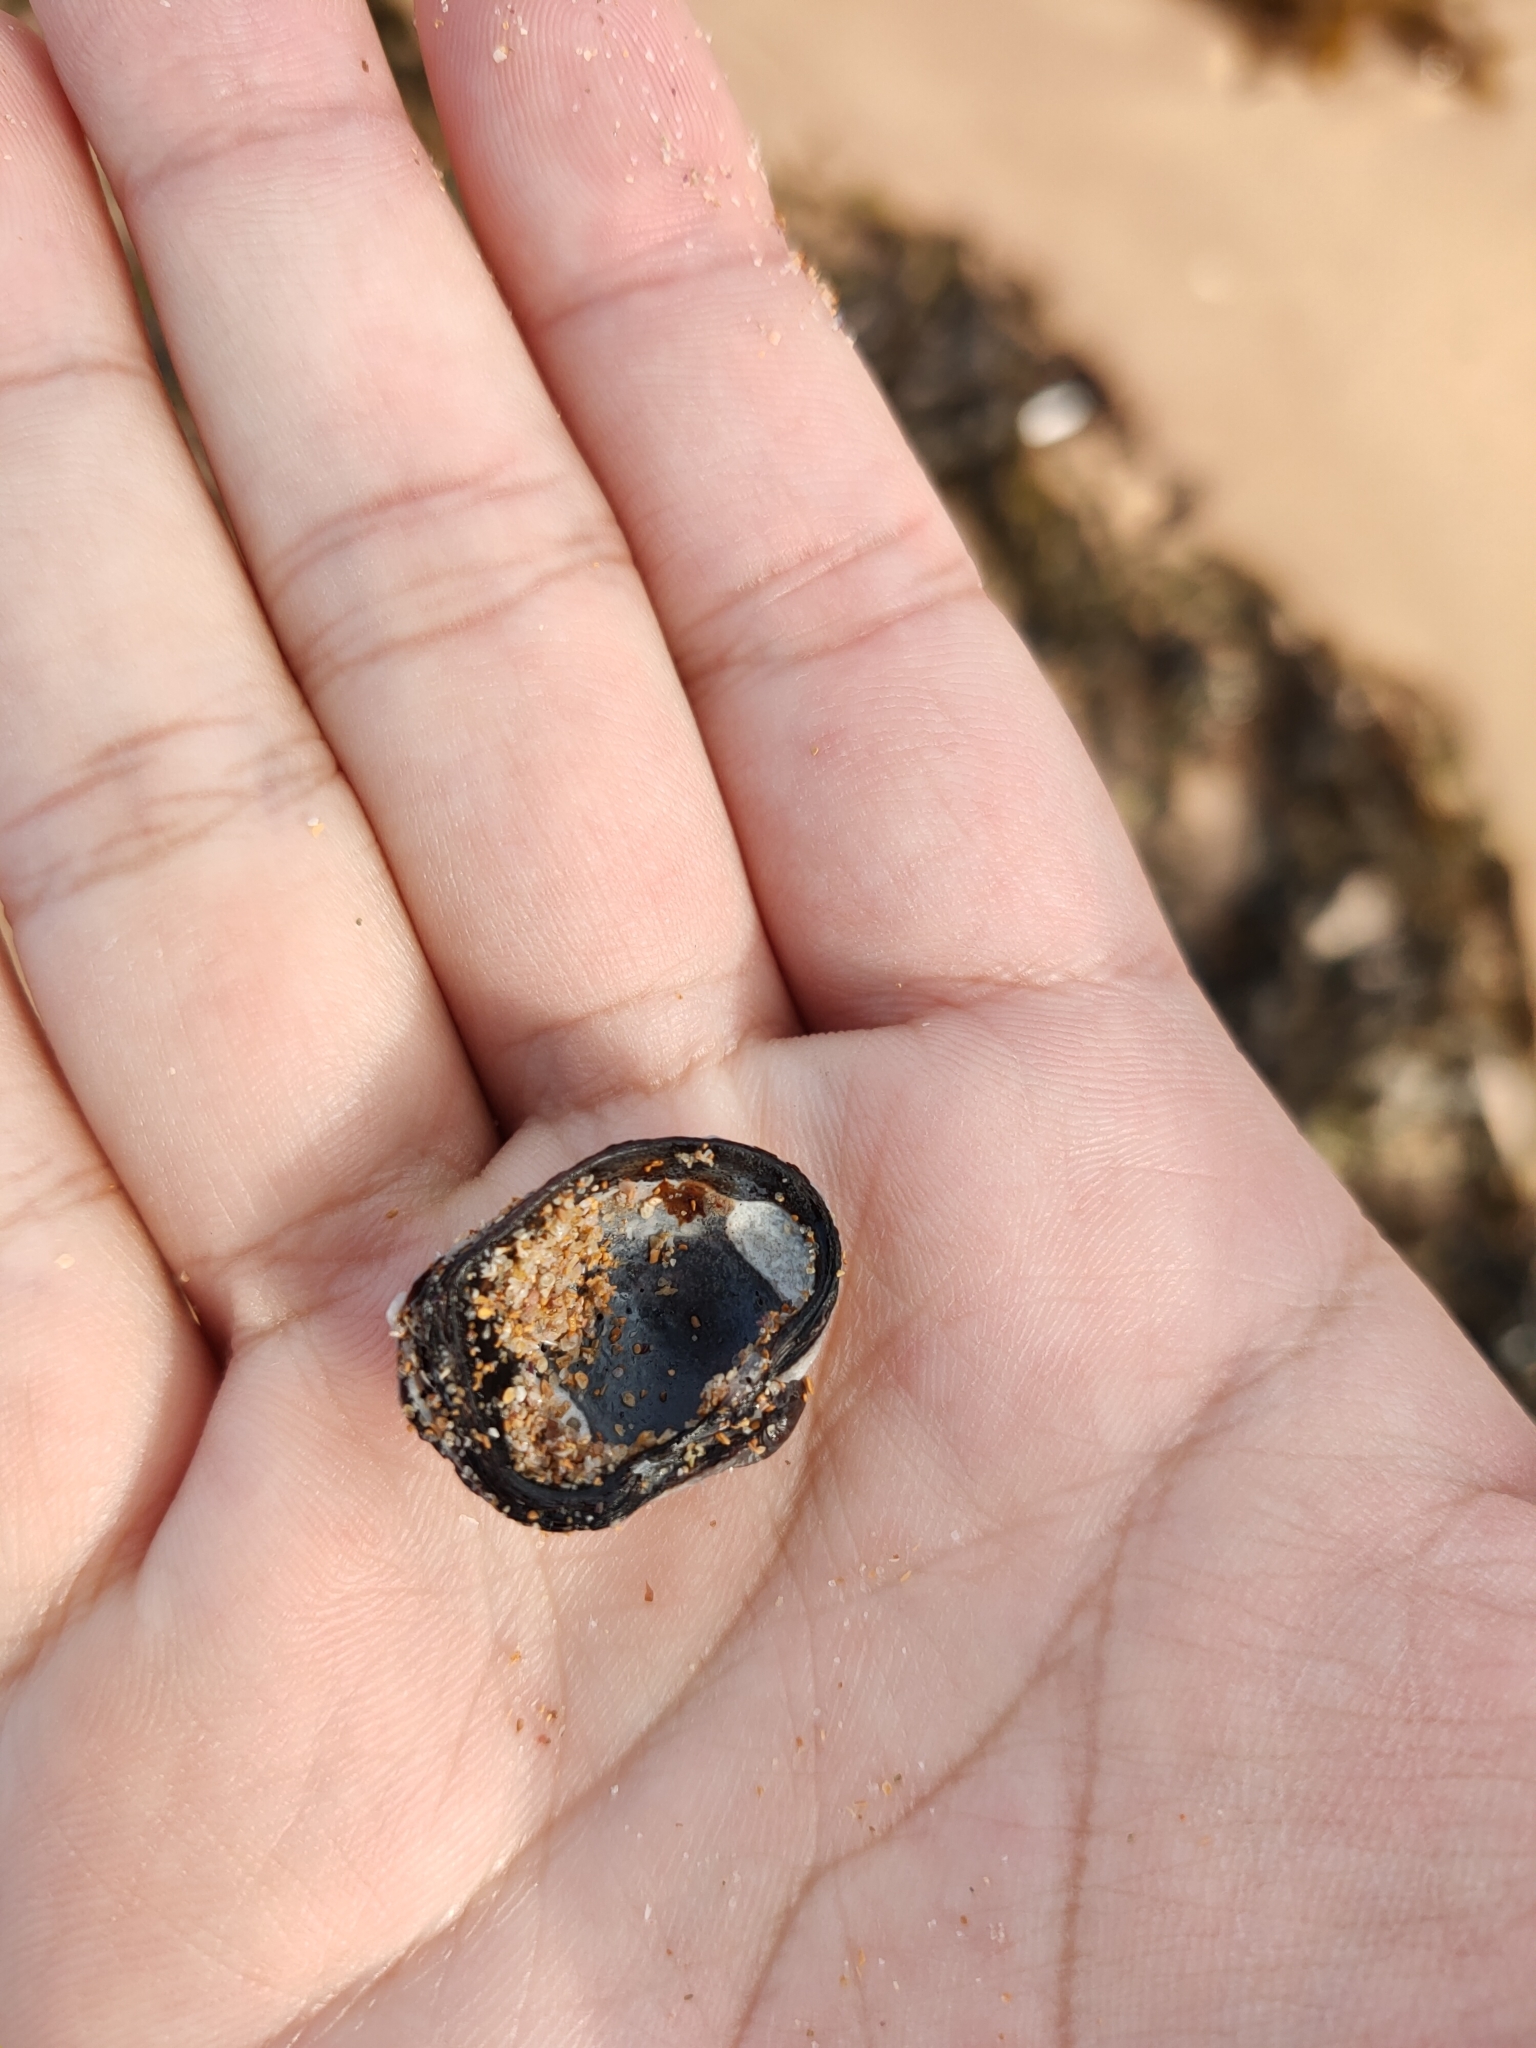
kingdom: Animalia
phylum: Mollusca
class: Bivalvia
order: Venerida
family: Veneridae
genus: Irus
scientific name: Irus cumingii
